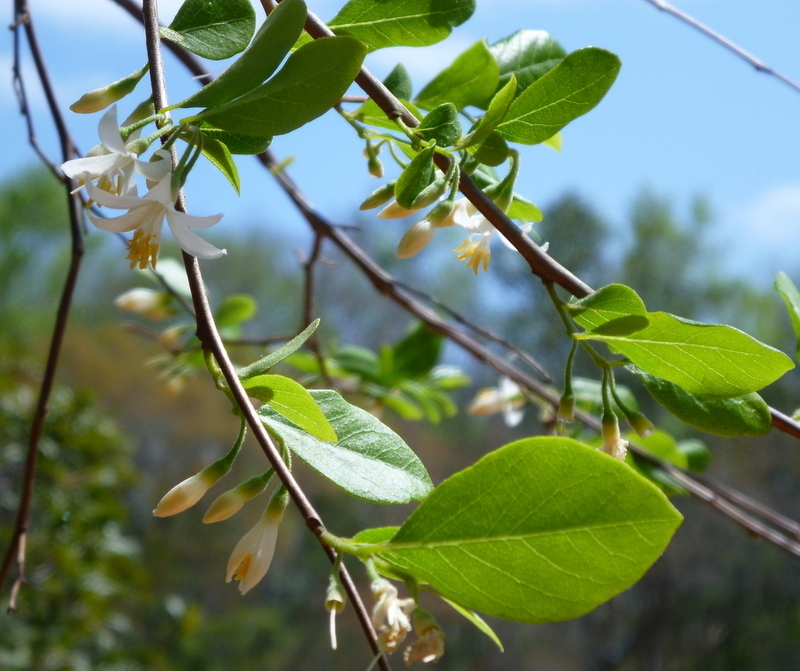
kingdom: Plantae
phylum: Tracheophyta
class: Magnoliopsida
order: Ericales
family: Styracaceae
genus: Styrax
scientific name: Styrax americanus
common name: American snowbell
